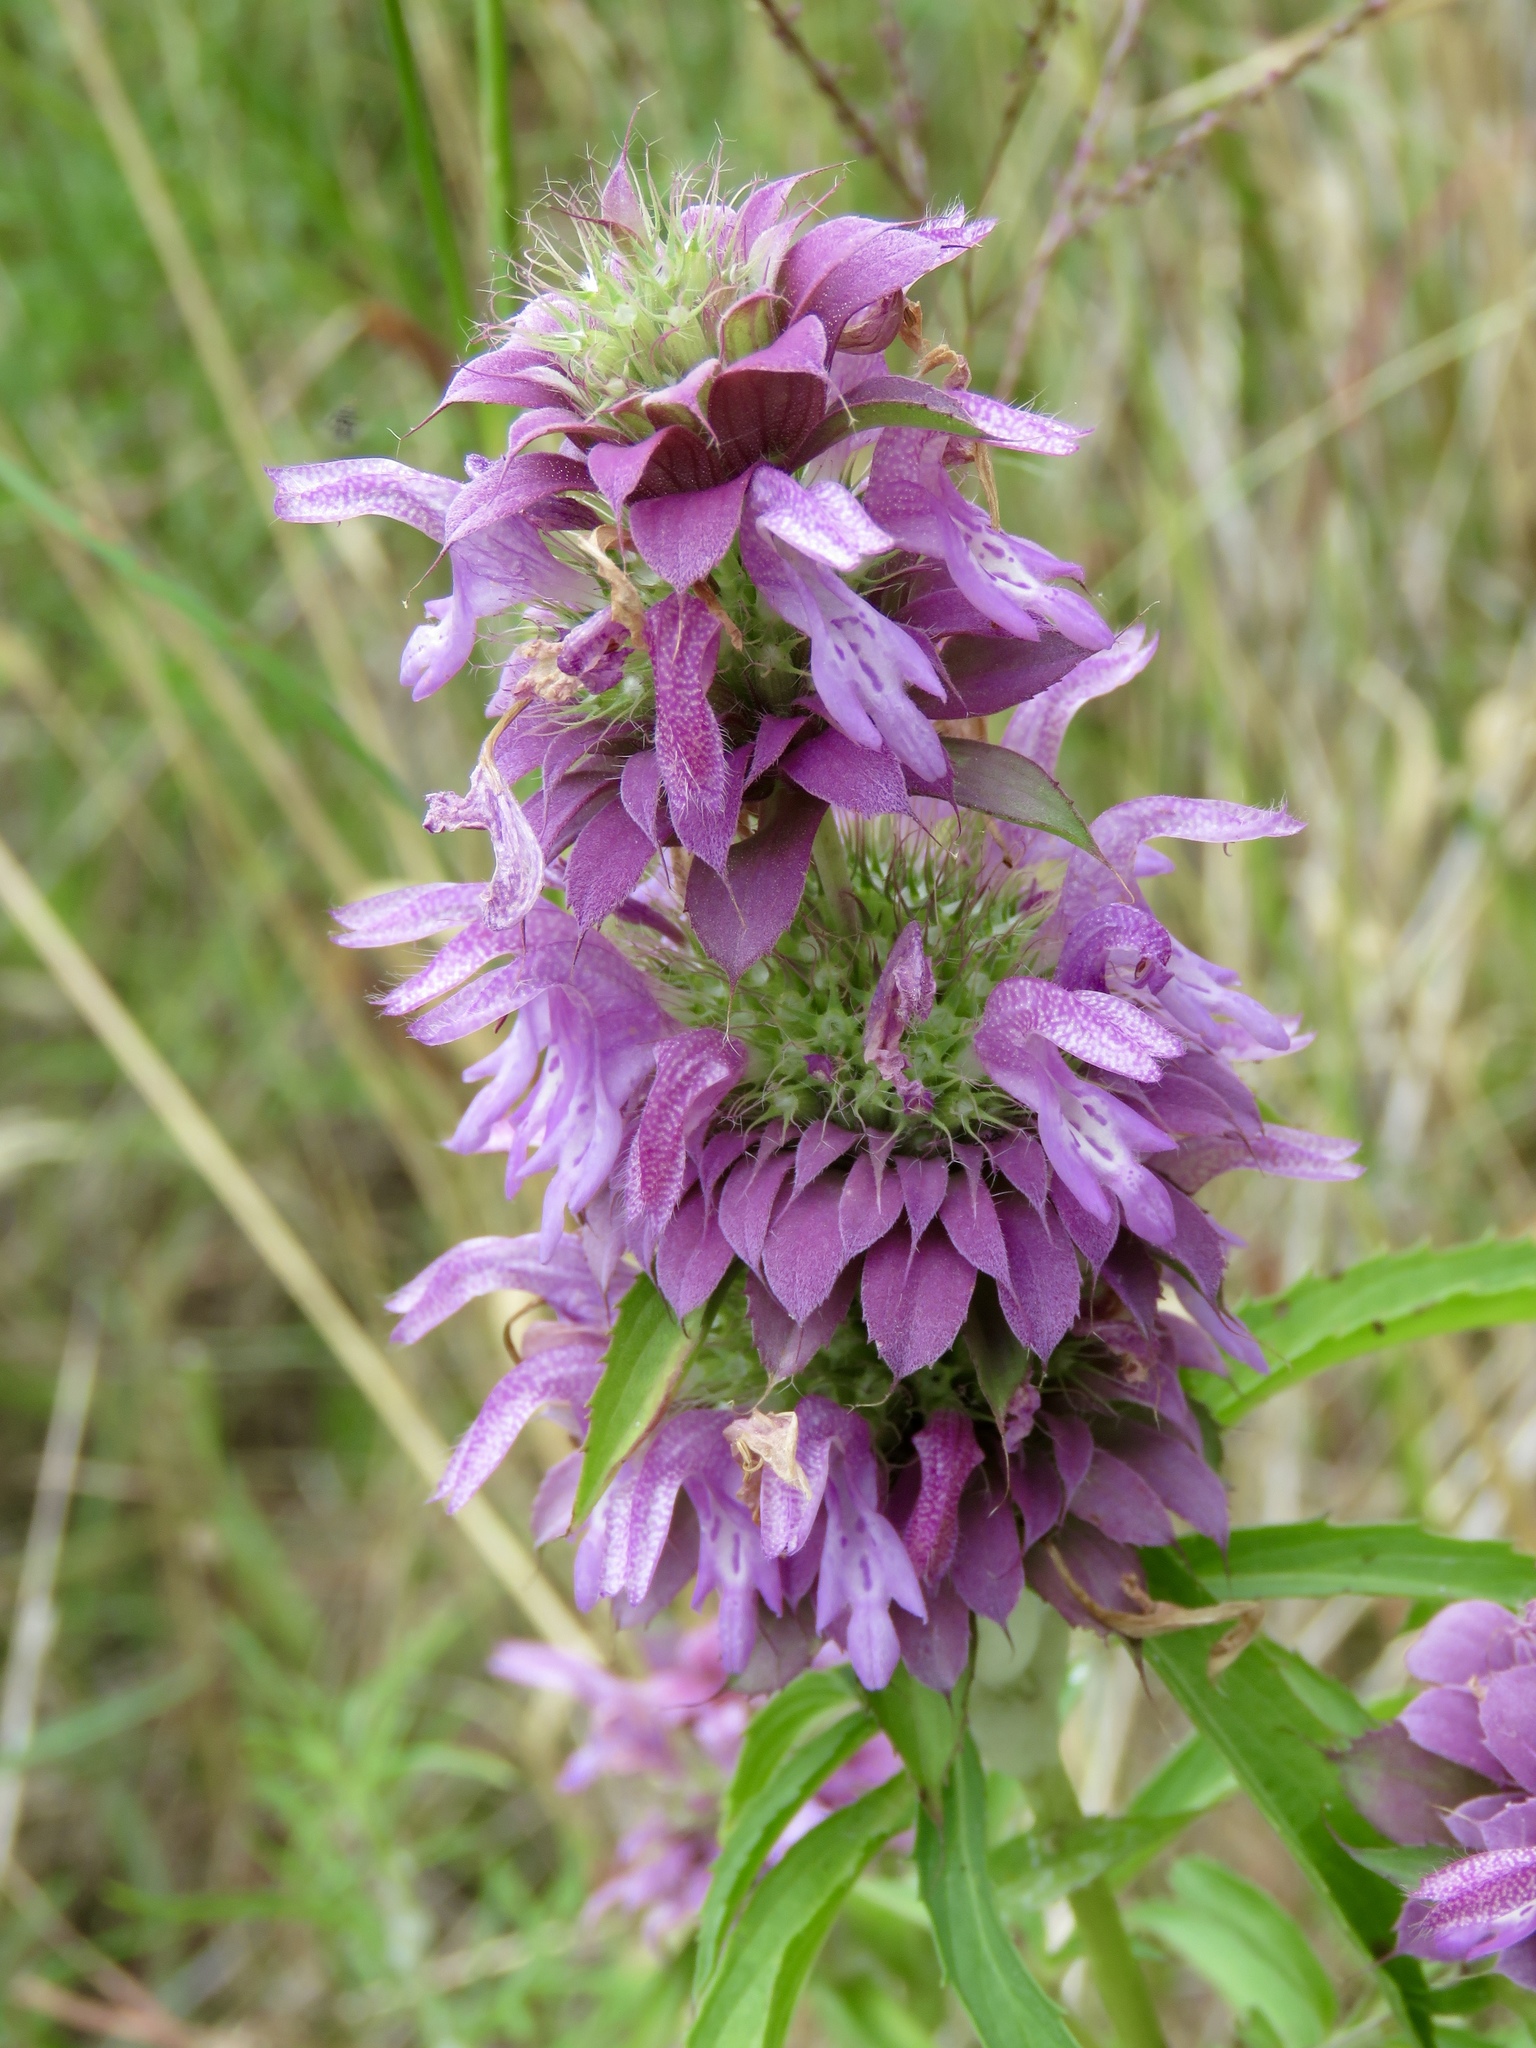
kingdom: Plantae
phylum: Tracheophyta
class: Magnoliopsida
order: Lamiales
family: Lamiaceae
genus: Monarda
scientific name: Monarda citriodora
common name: Lemon beebalm
